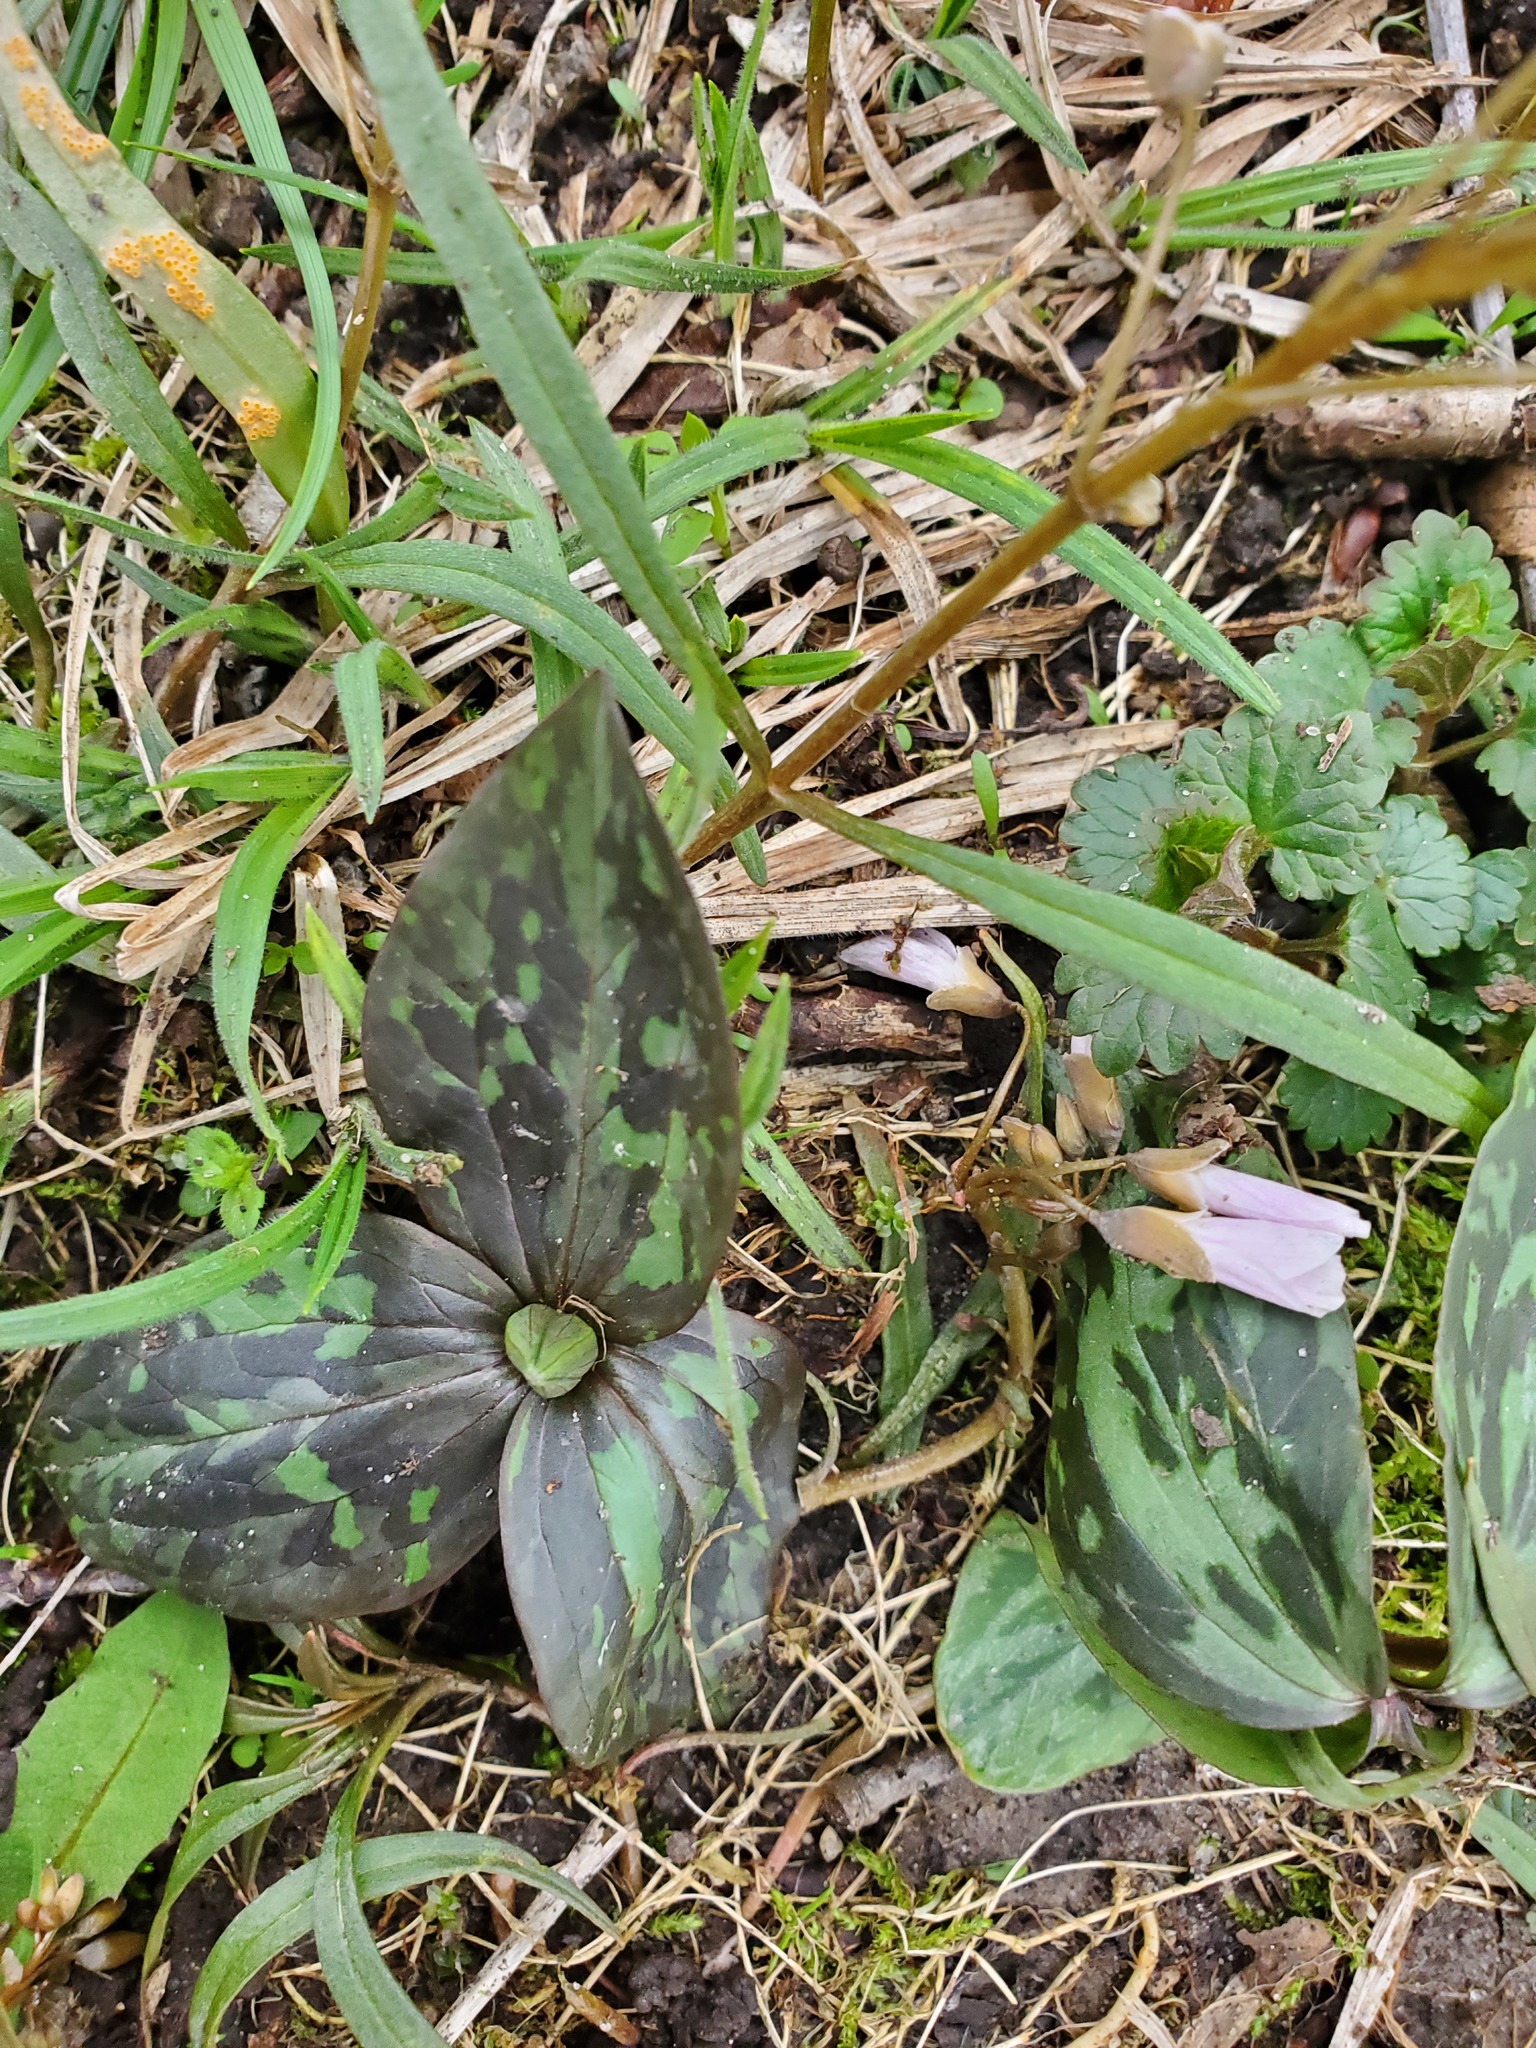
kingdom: Plantae
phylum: Tracheophyta
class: Liliopsida
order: Liliales
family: Melanthiaceae
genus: Trillium
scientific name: Trillium recurvatum
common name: Bloody butcher
